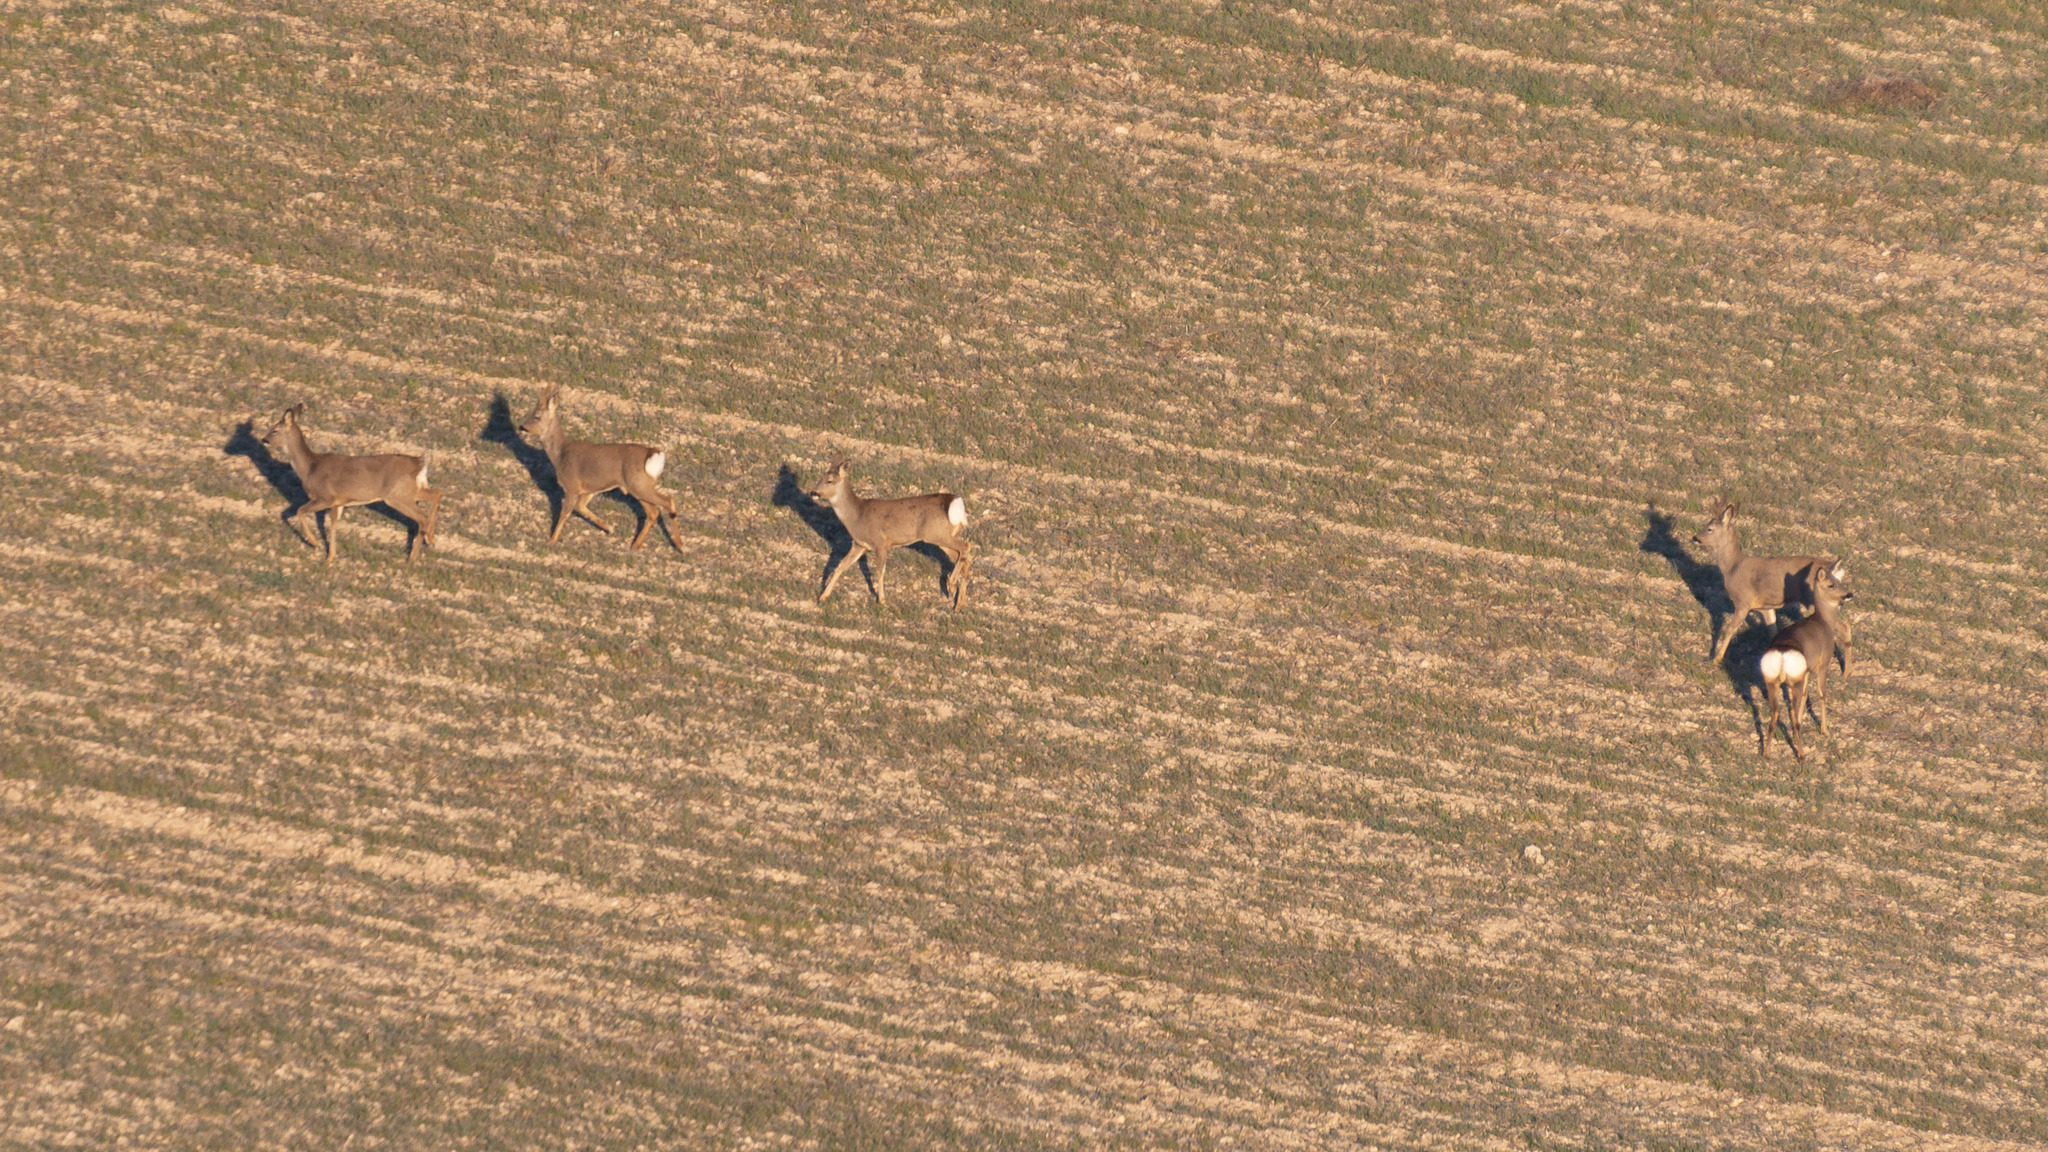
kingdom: Animalia
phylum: Chordata
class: Mammalia
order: Artiodactyla
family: Cervidae
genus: Capreolus
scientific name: Capreolus capreolus
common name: Western roe deer
